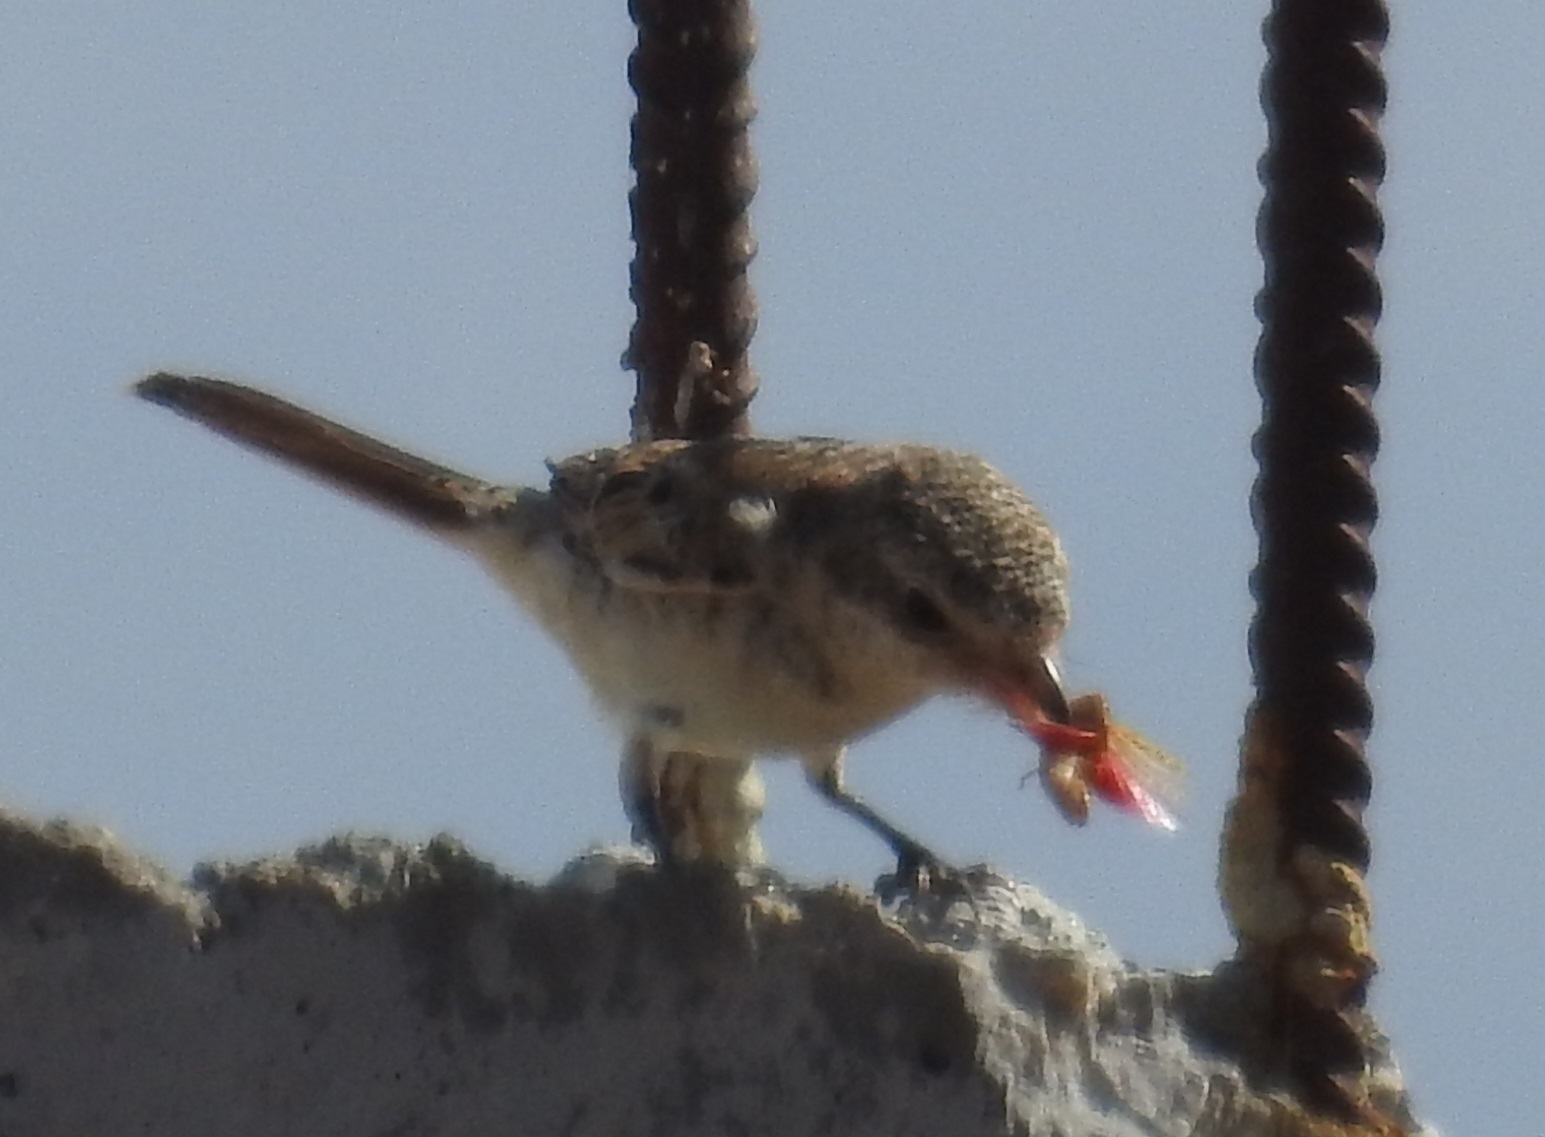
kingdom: Animalia
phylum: Chordata
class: Aves
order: Passeriformes
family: Laniidae
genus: Lanius
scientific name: Lanius senator
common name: Woodchat shrike
